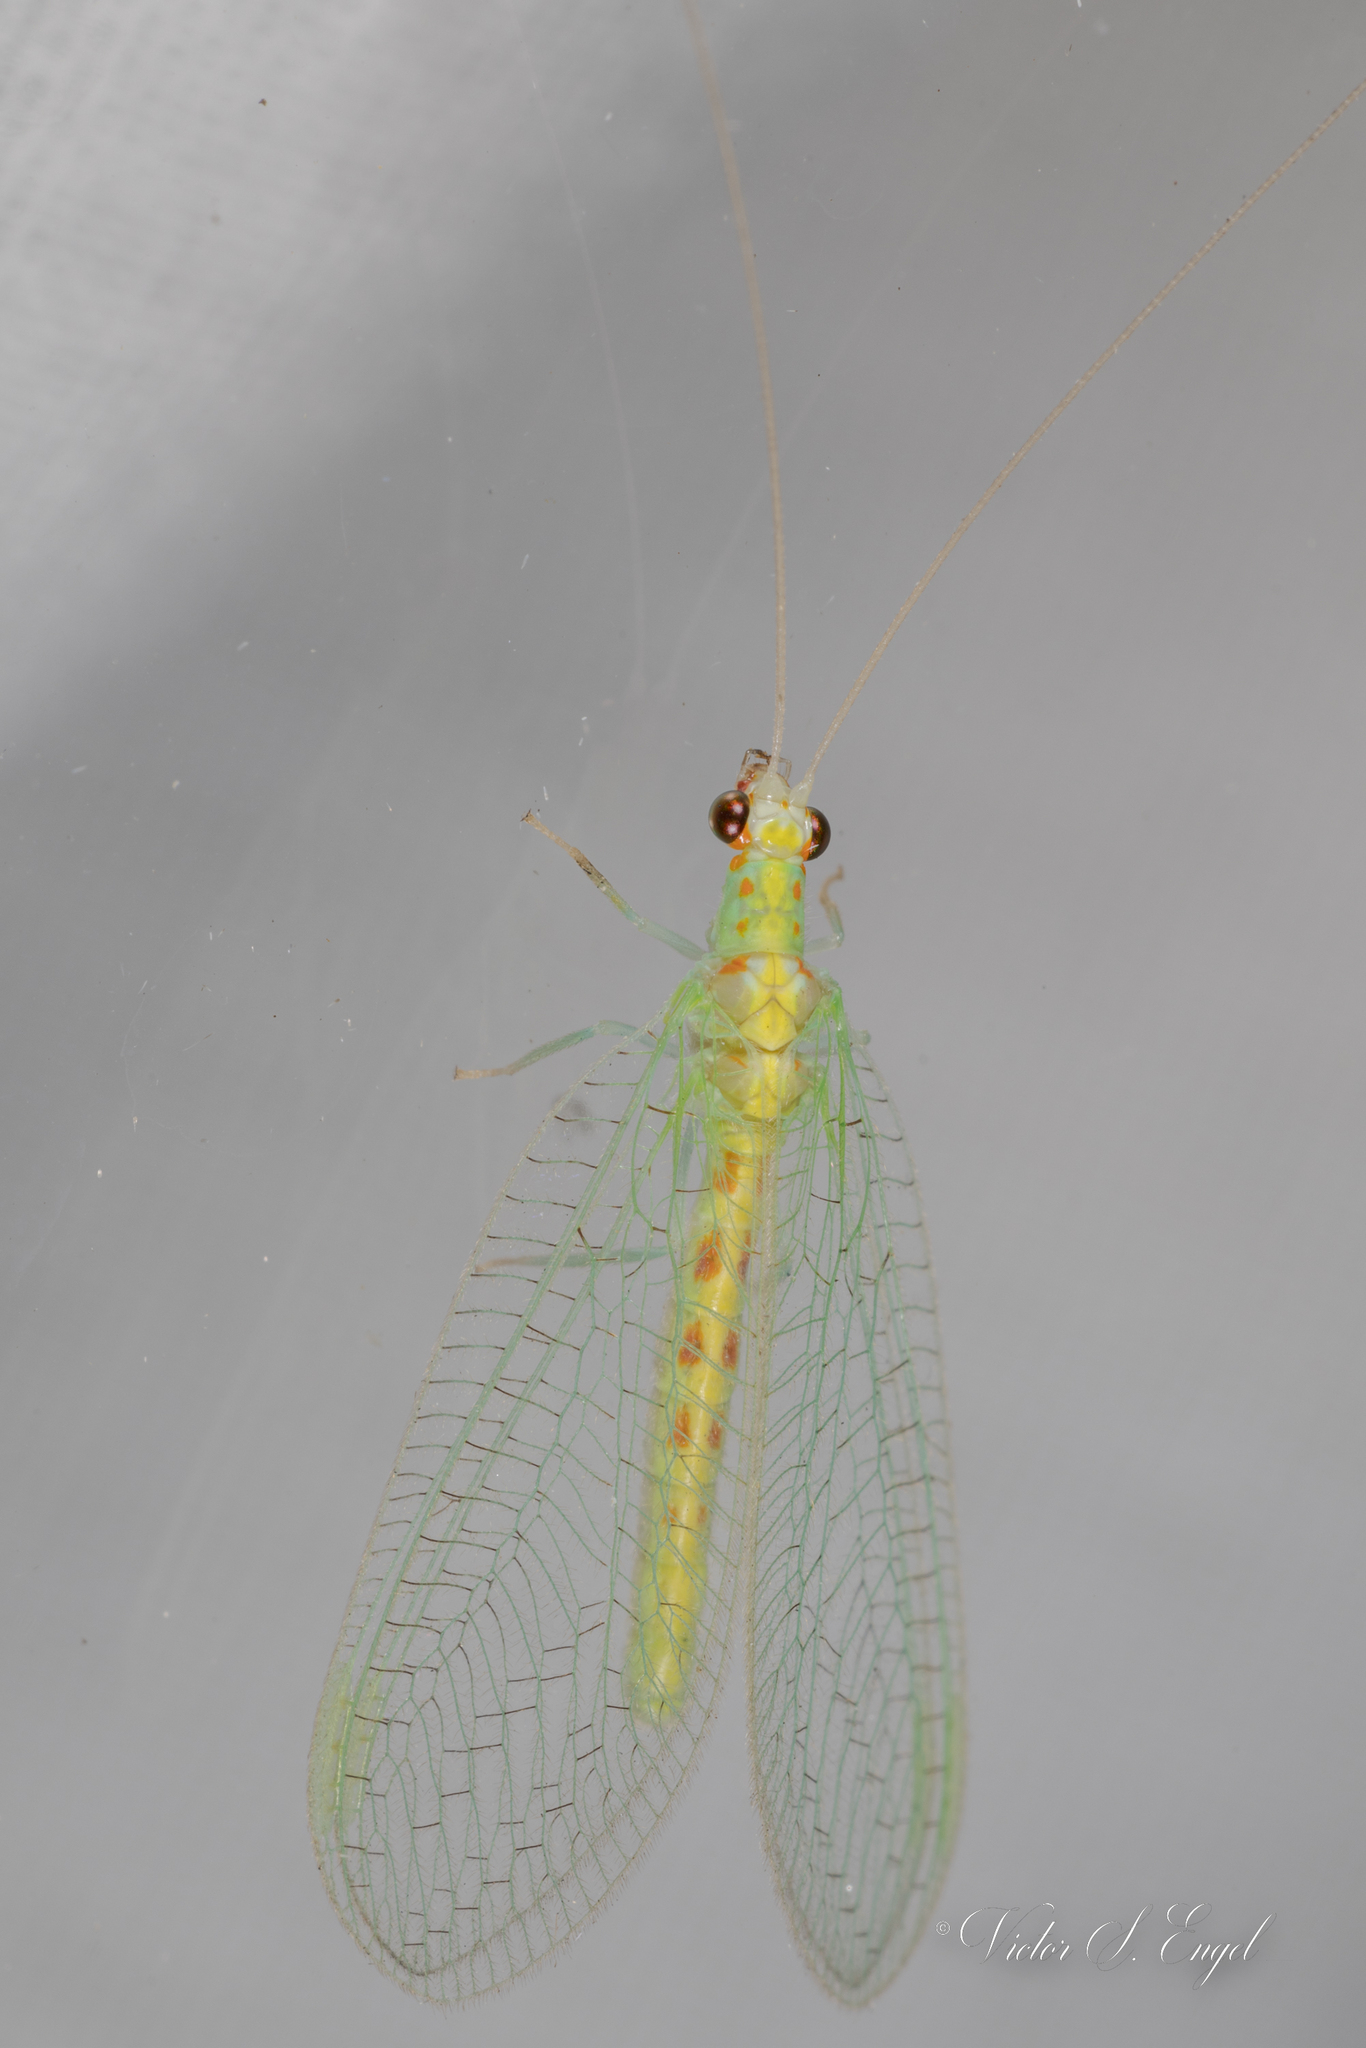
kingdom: Animalia
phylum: Arthropoda
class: Insecta
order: Neuroptera
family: Chrysopidae
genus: Chrysopa
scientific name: Chrysopa quadripunctata
